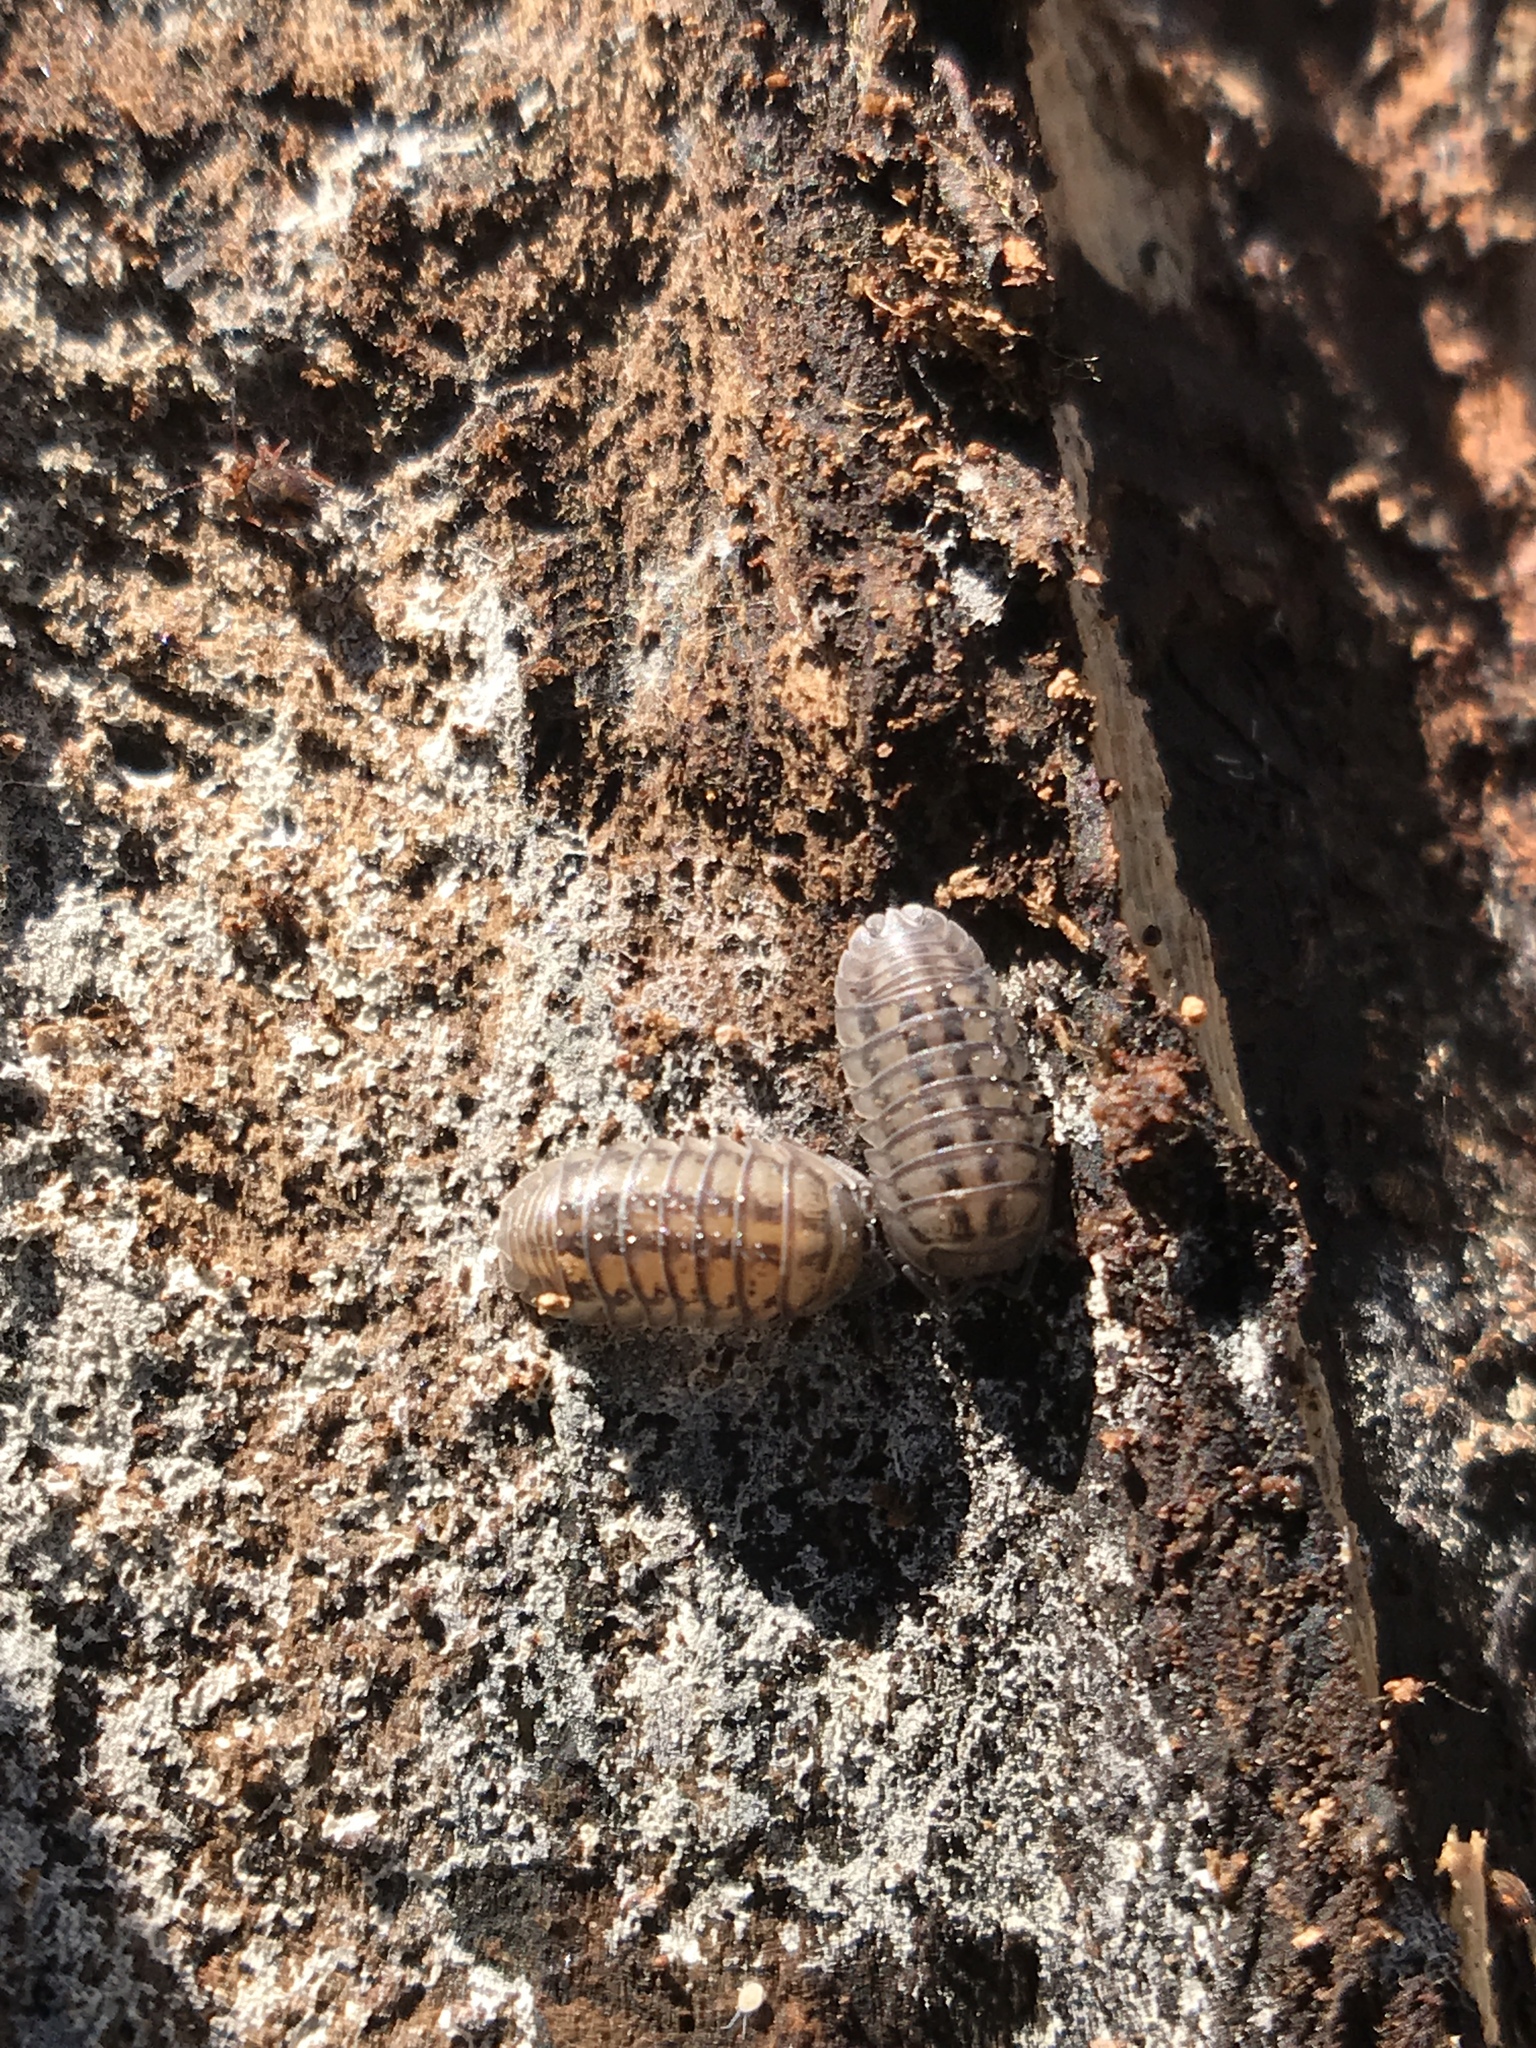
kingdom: Animalia
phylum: Arthropoda
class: Malacostraca
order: Isopoda
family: Armadillidiidae
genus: Armadillidium
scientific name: Armadillidium nasatum
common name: Isopod
